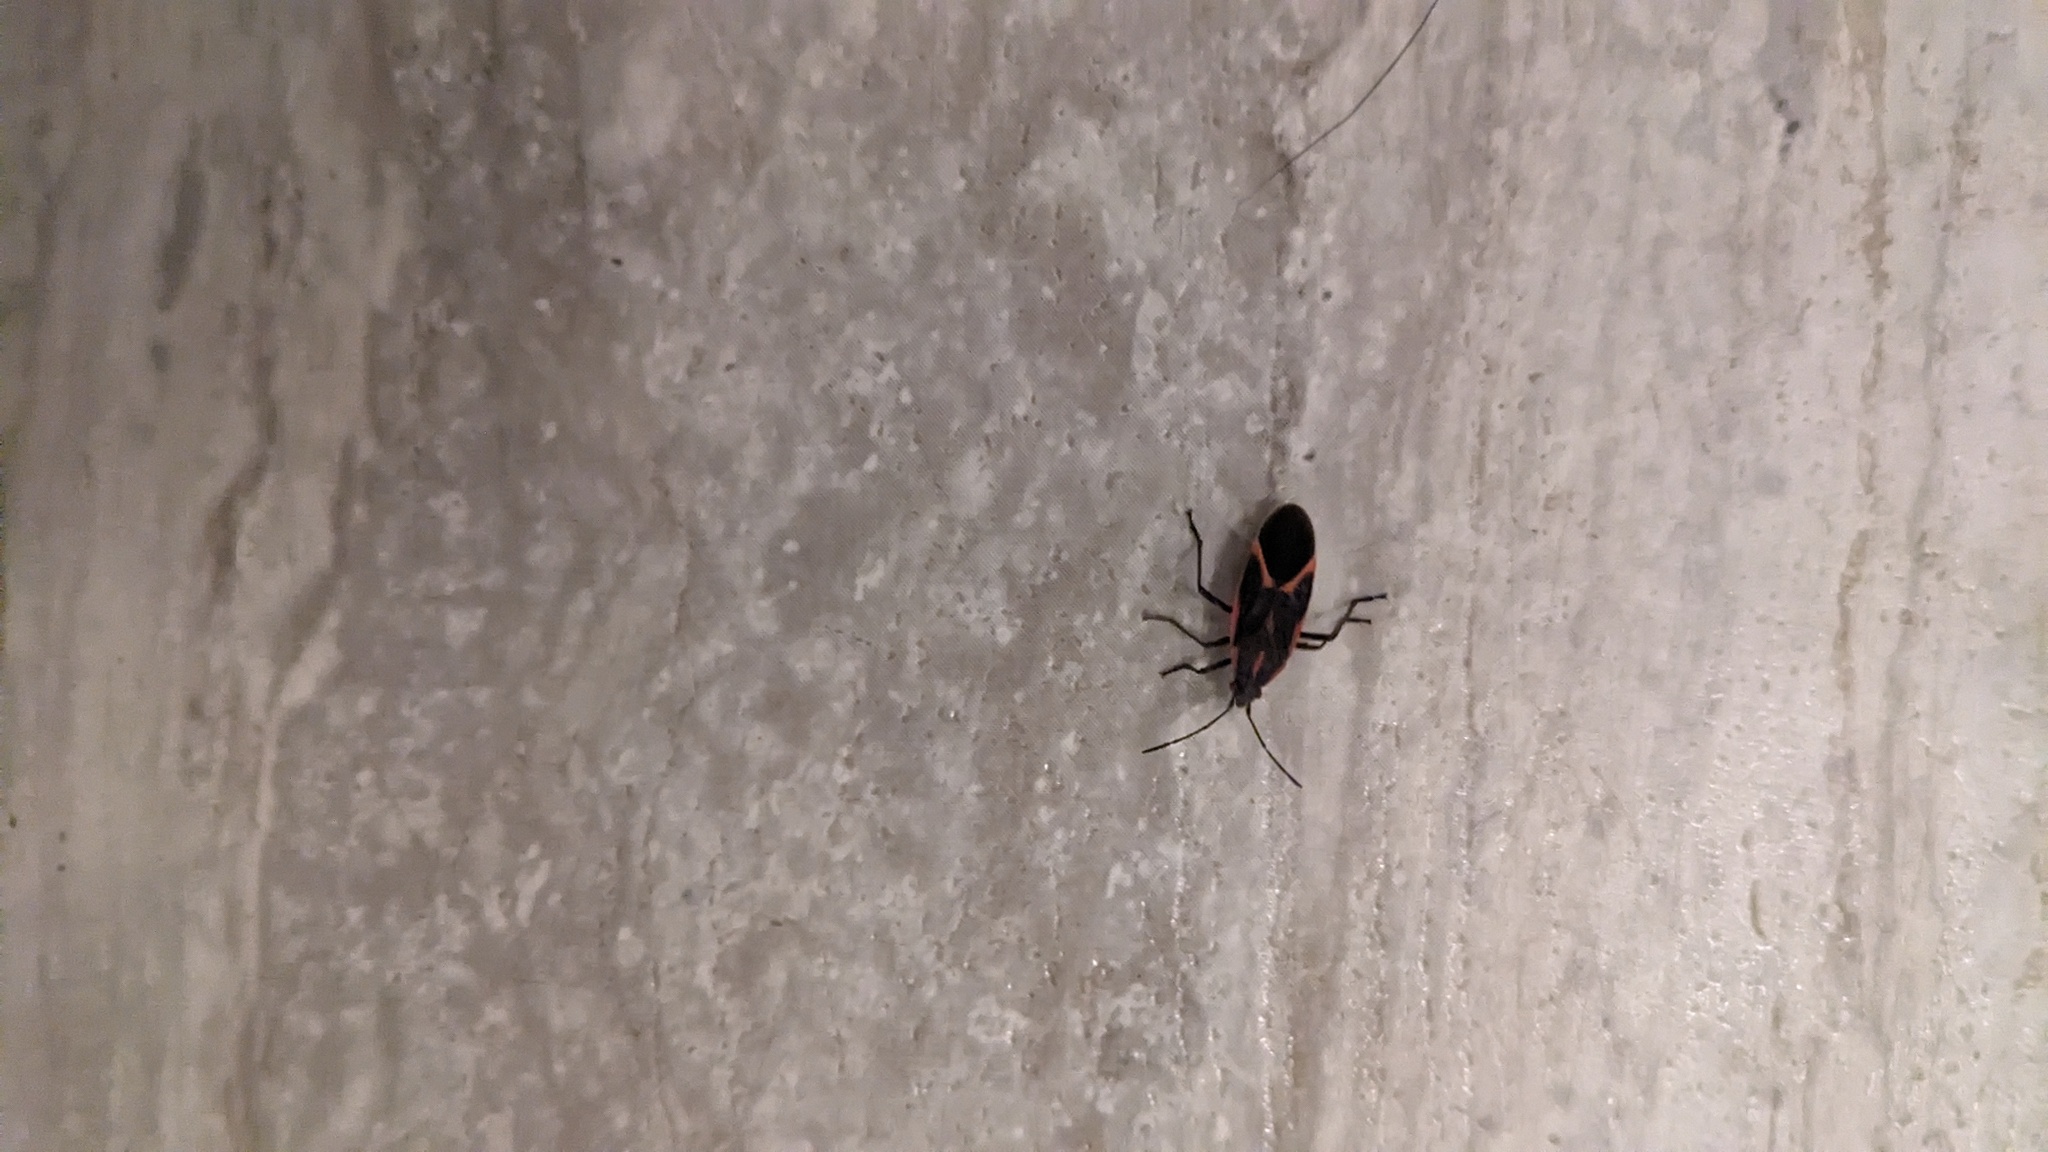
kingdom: Animalia
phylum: Arthropoda
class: Insecta
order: Hemiptera
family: Rhopalidae
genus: Boisea
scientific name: Boisea trivittata
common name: Boxelder bug
